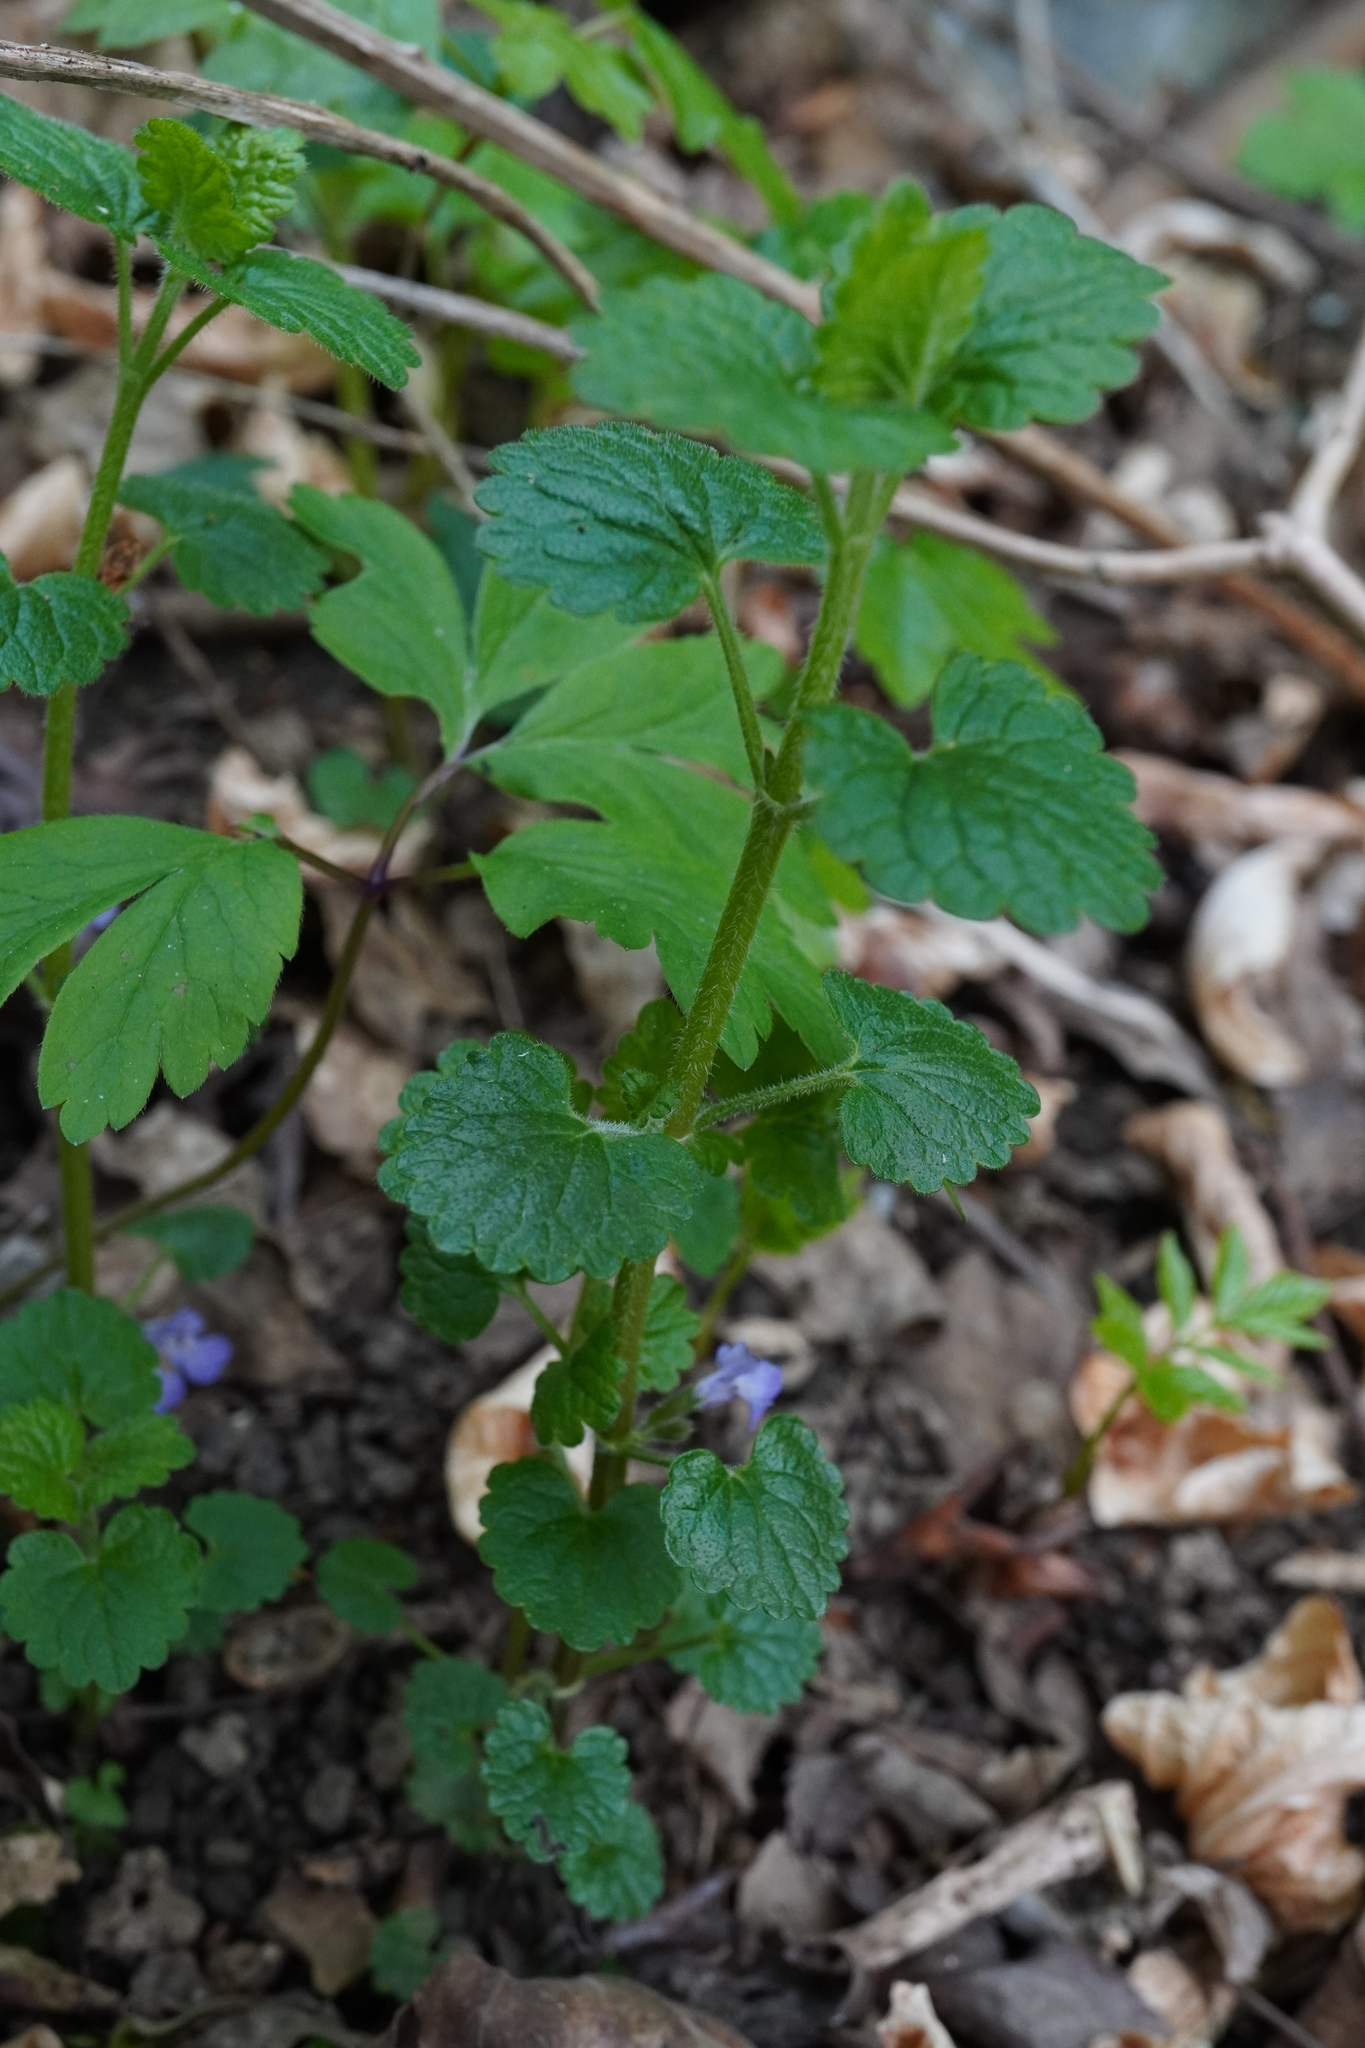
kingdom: Plantae
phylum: Tracheophyta
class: Magnoliopsida
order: Lamiales
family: Lamiaceae
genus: Glechoma
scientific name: Glechoma hederacea
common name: Ground ivy
